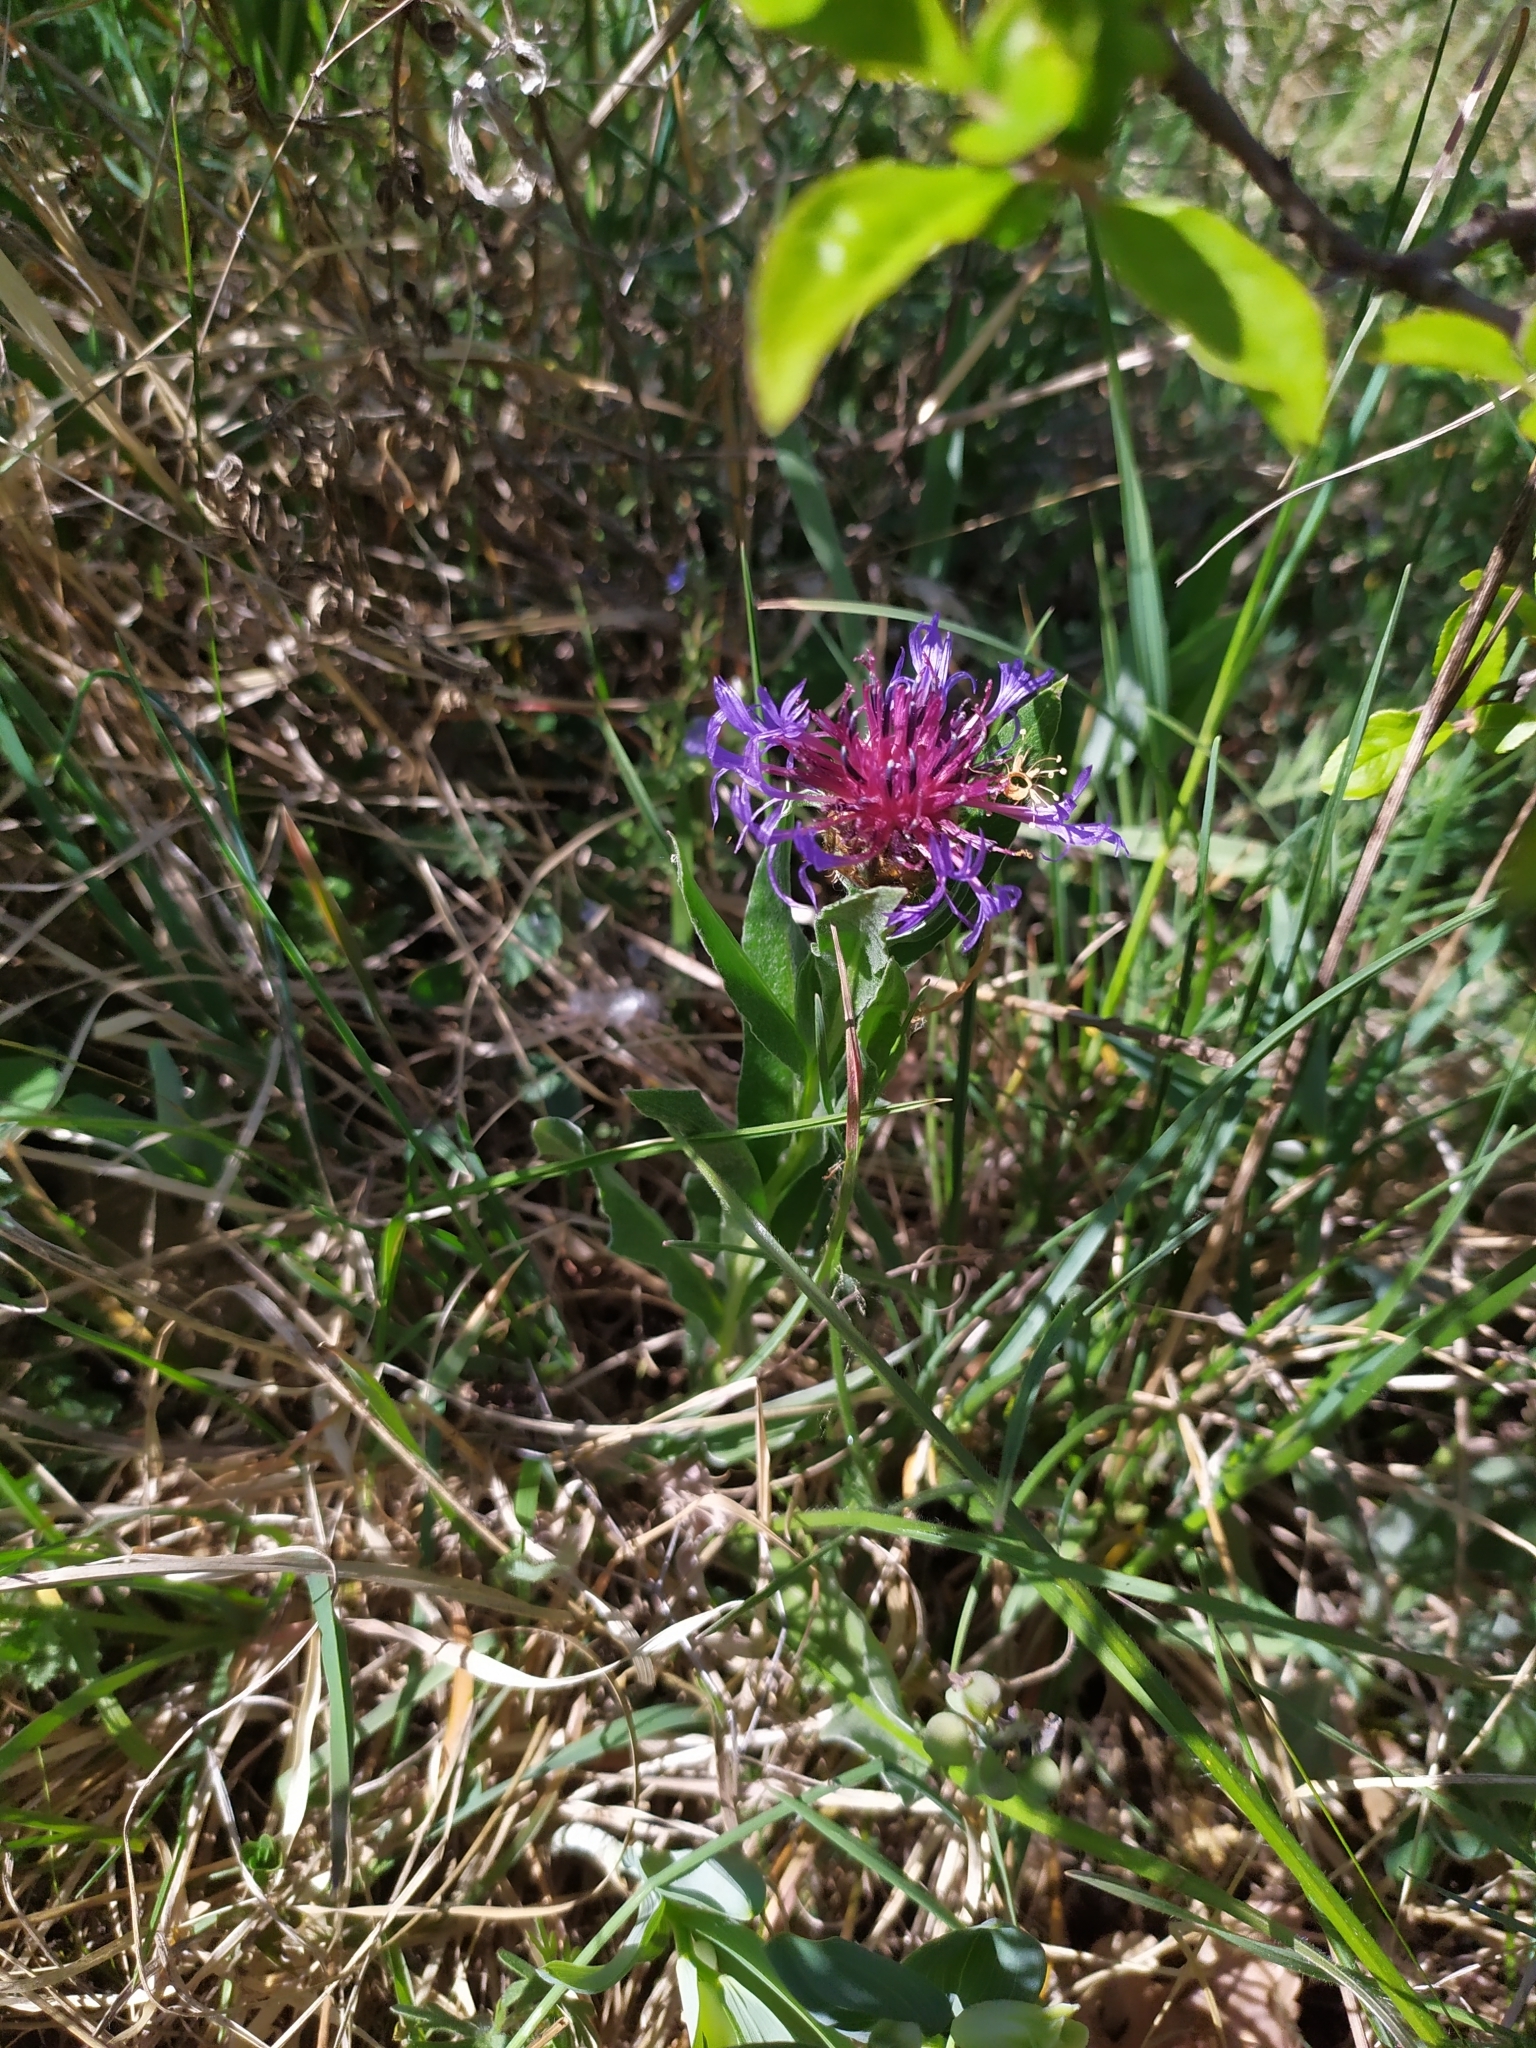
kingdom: Plantae
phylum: Tracheophyta
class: Magnoliopsida
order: Asterales
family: Asteraceae
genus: Centaurea
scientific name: Centaurea triumfettii
